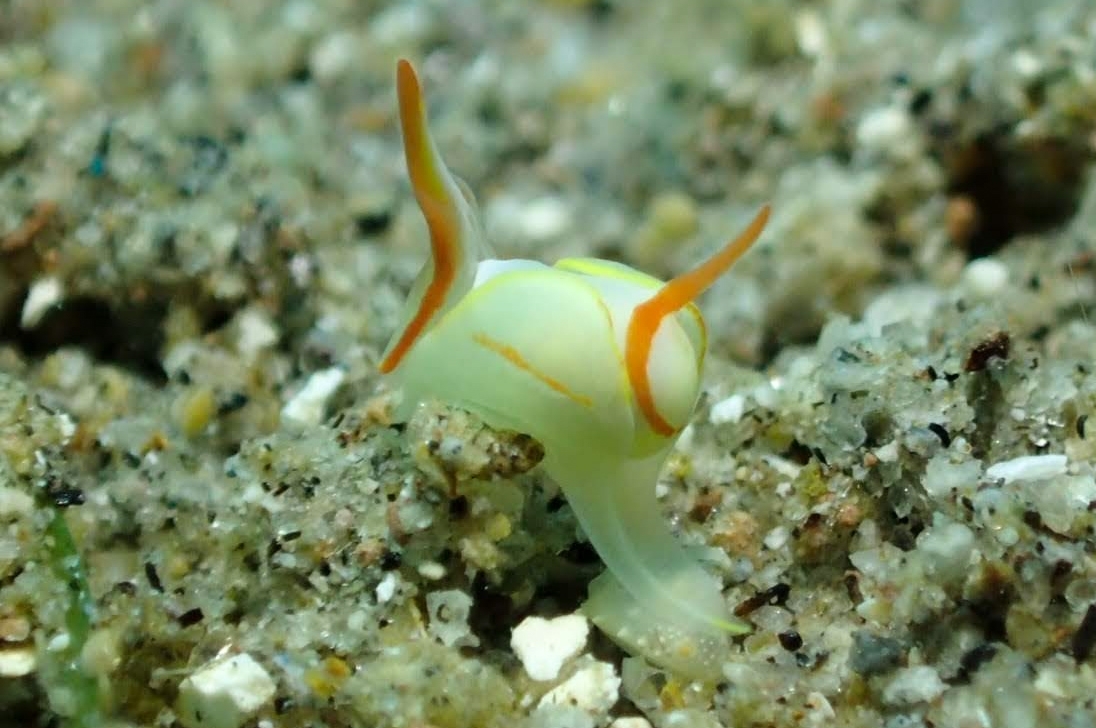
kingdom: Animalia
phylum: Mollusca
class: Gastropoda
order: Cephalaspidea
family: Gastropteridae
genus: Siphopteron
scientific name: Siphopteron makisig
